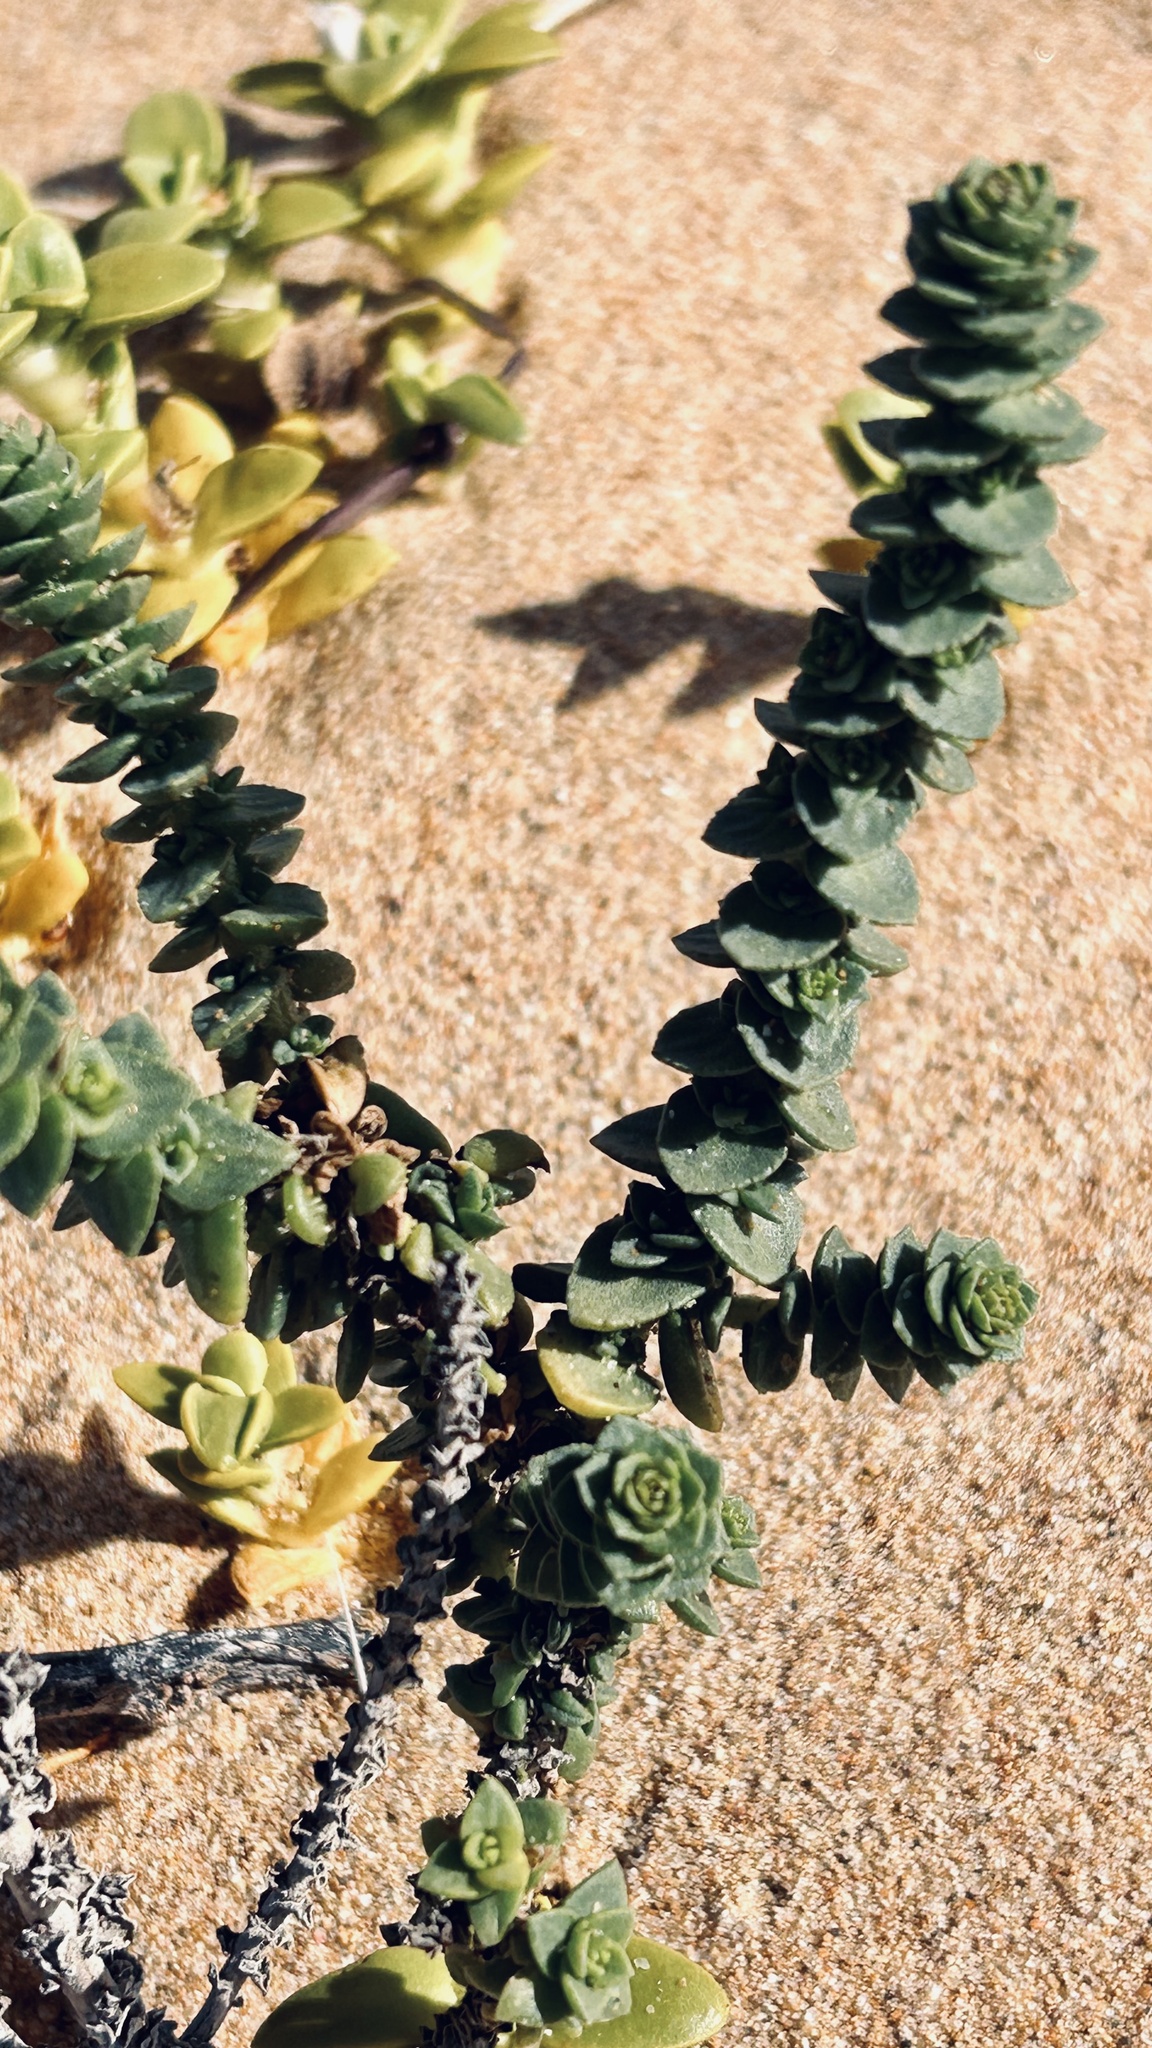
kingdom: Plantae
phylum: Tracheophyta
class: Magnoliopsida
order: Lamiales
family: Scrophulariaceae
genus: Hebenstretia
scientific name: Hebenstretia cordata
